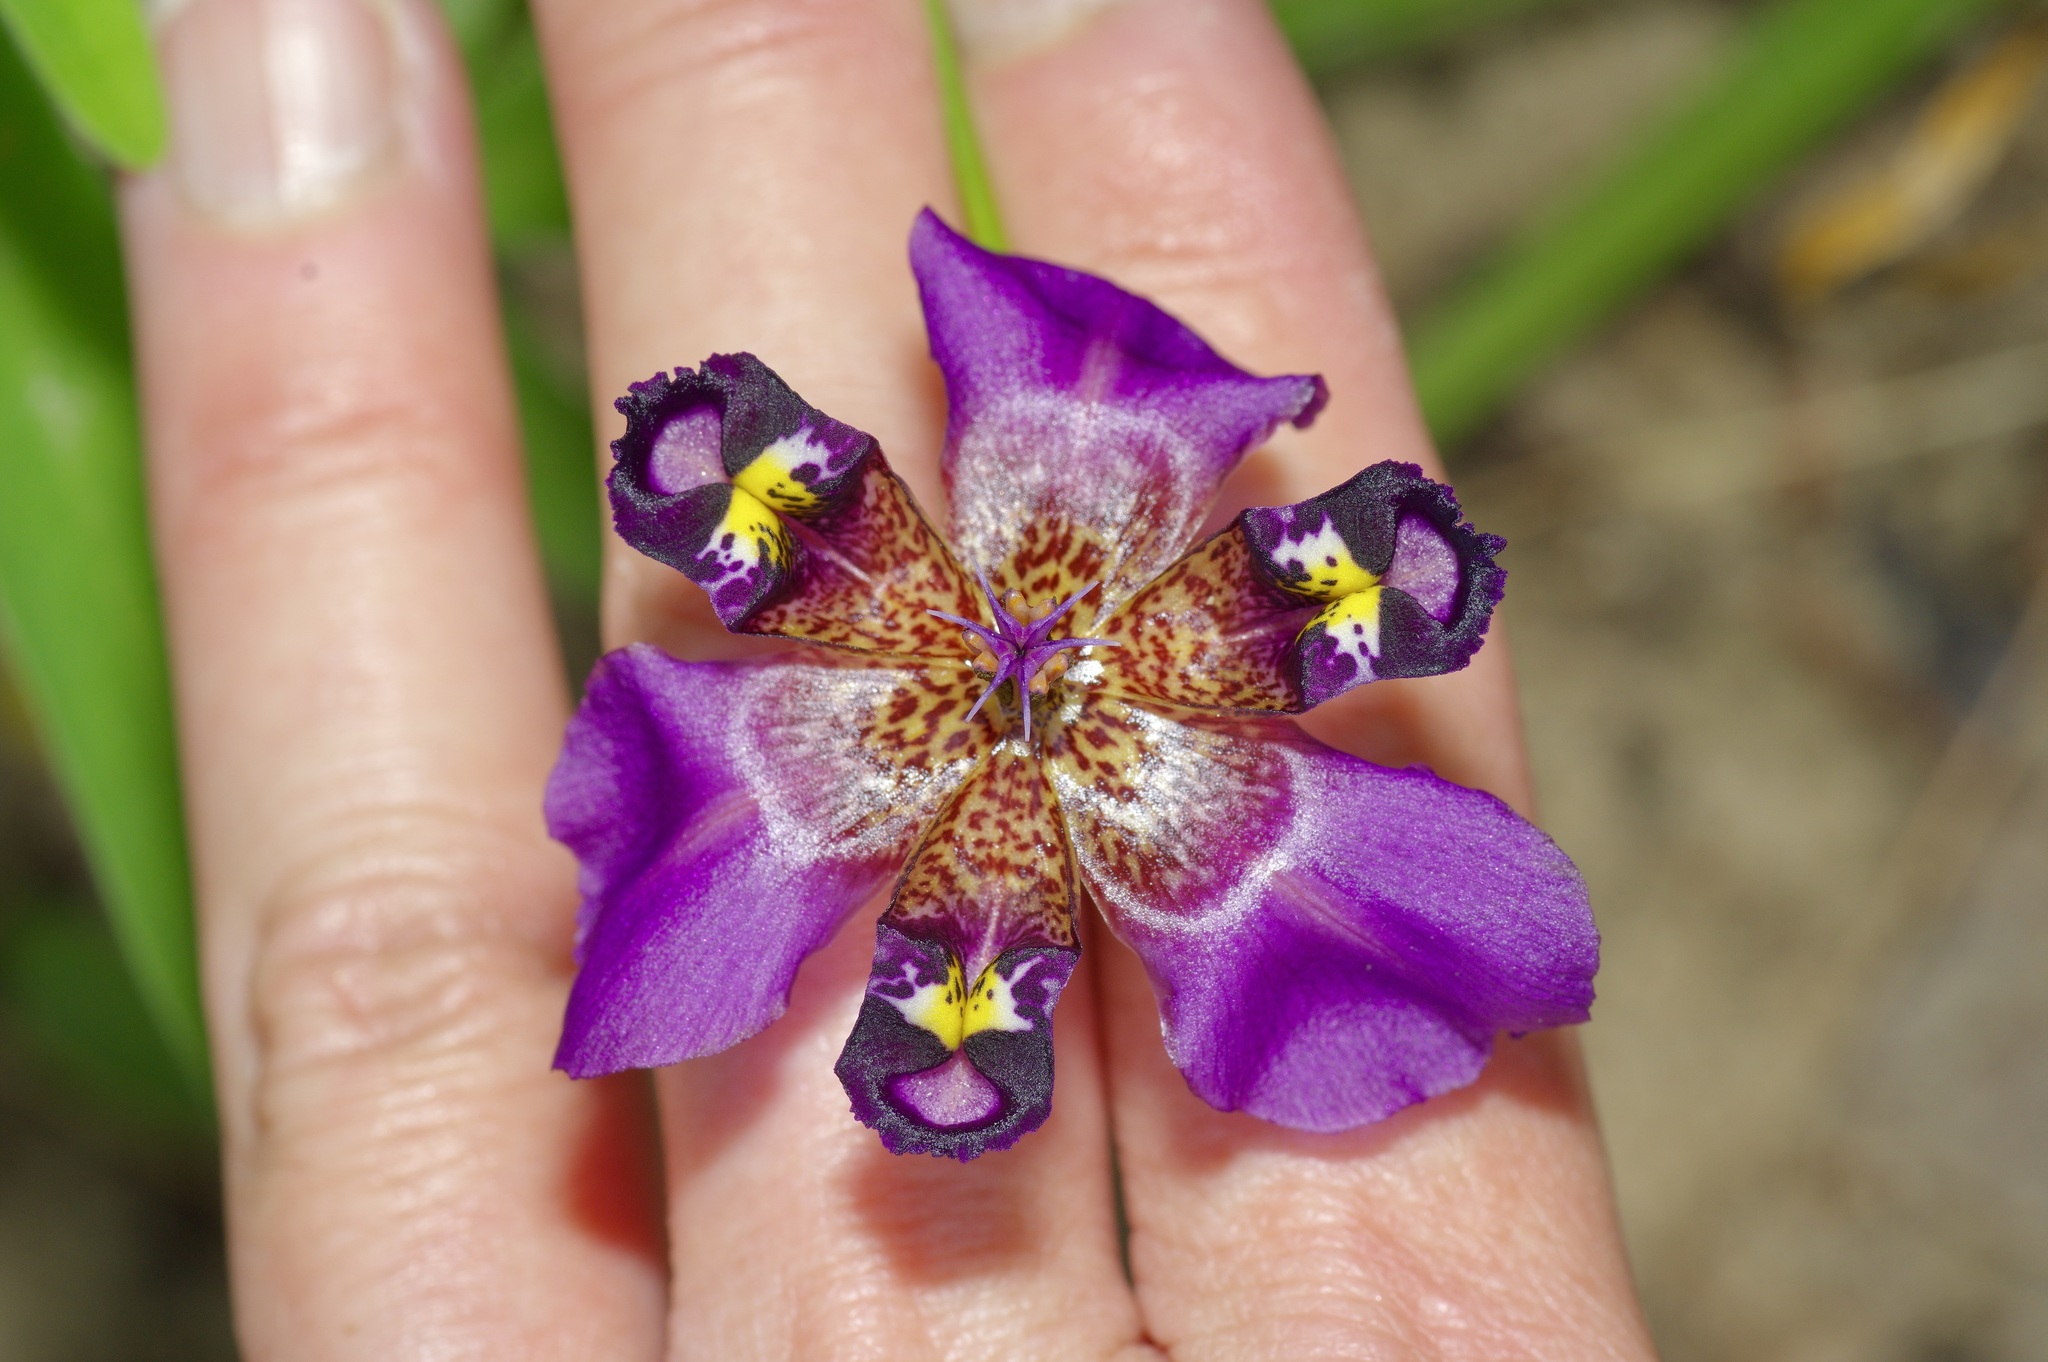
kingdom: Plantae
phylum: Tracheophyta
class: Liliopsida
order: Asparagales
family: Iridaceae
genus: Alophia
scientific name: Alophia drummondii
